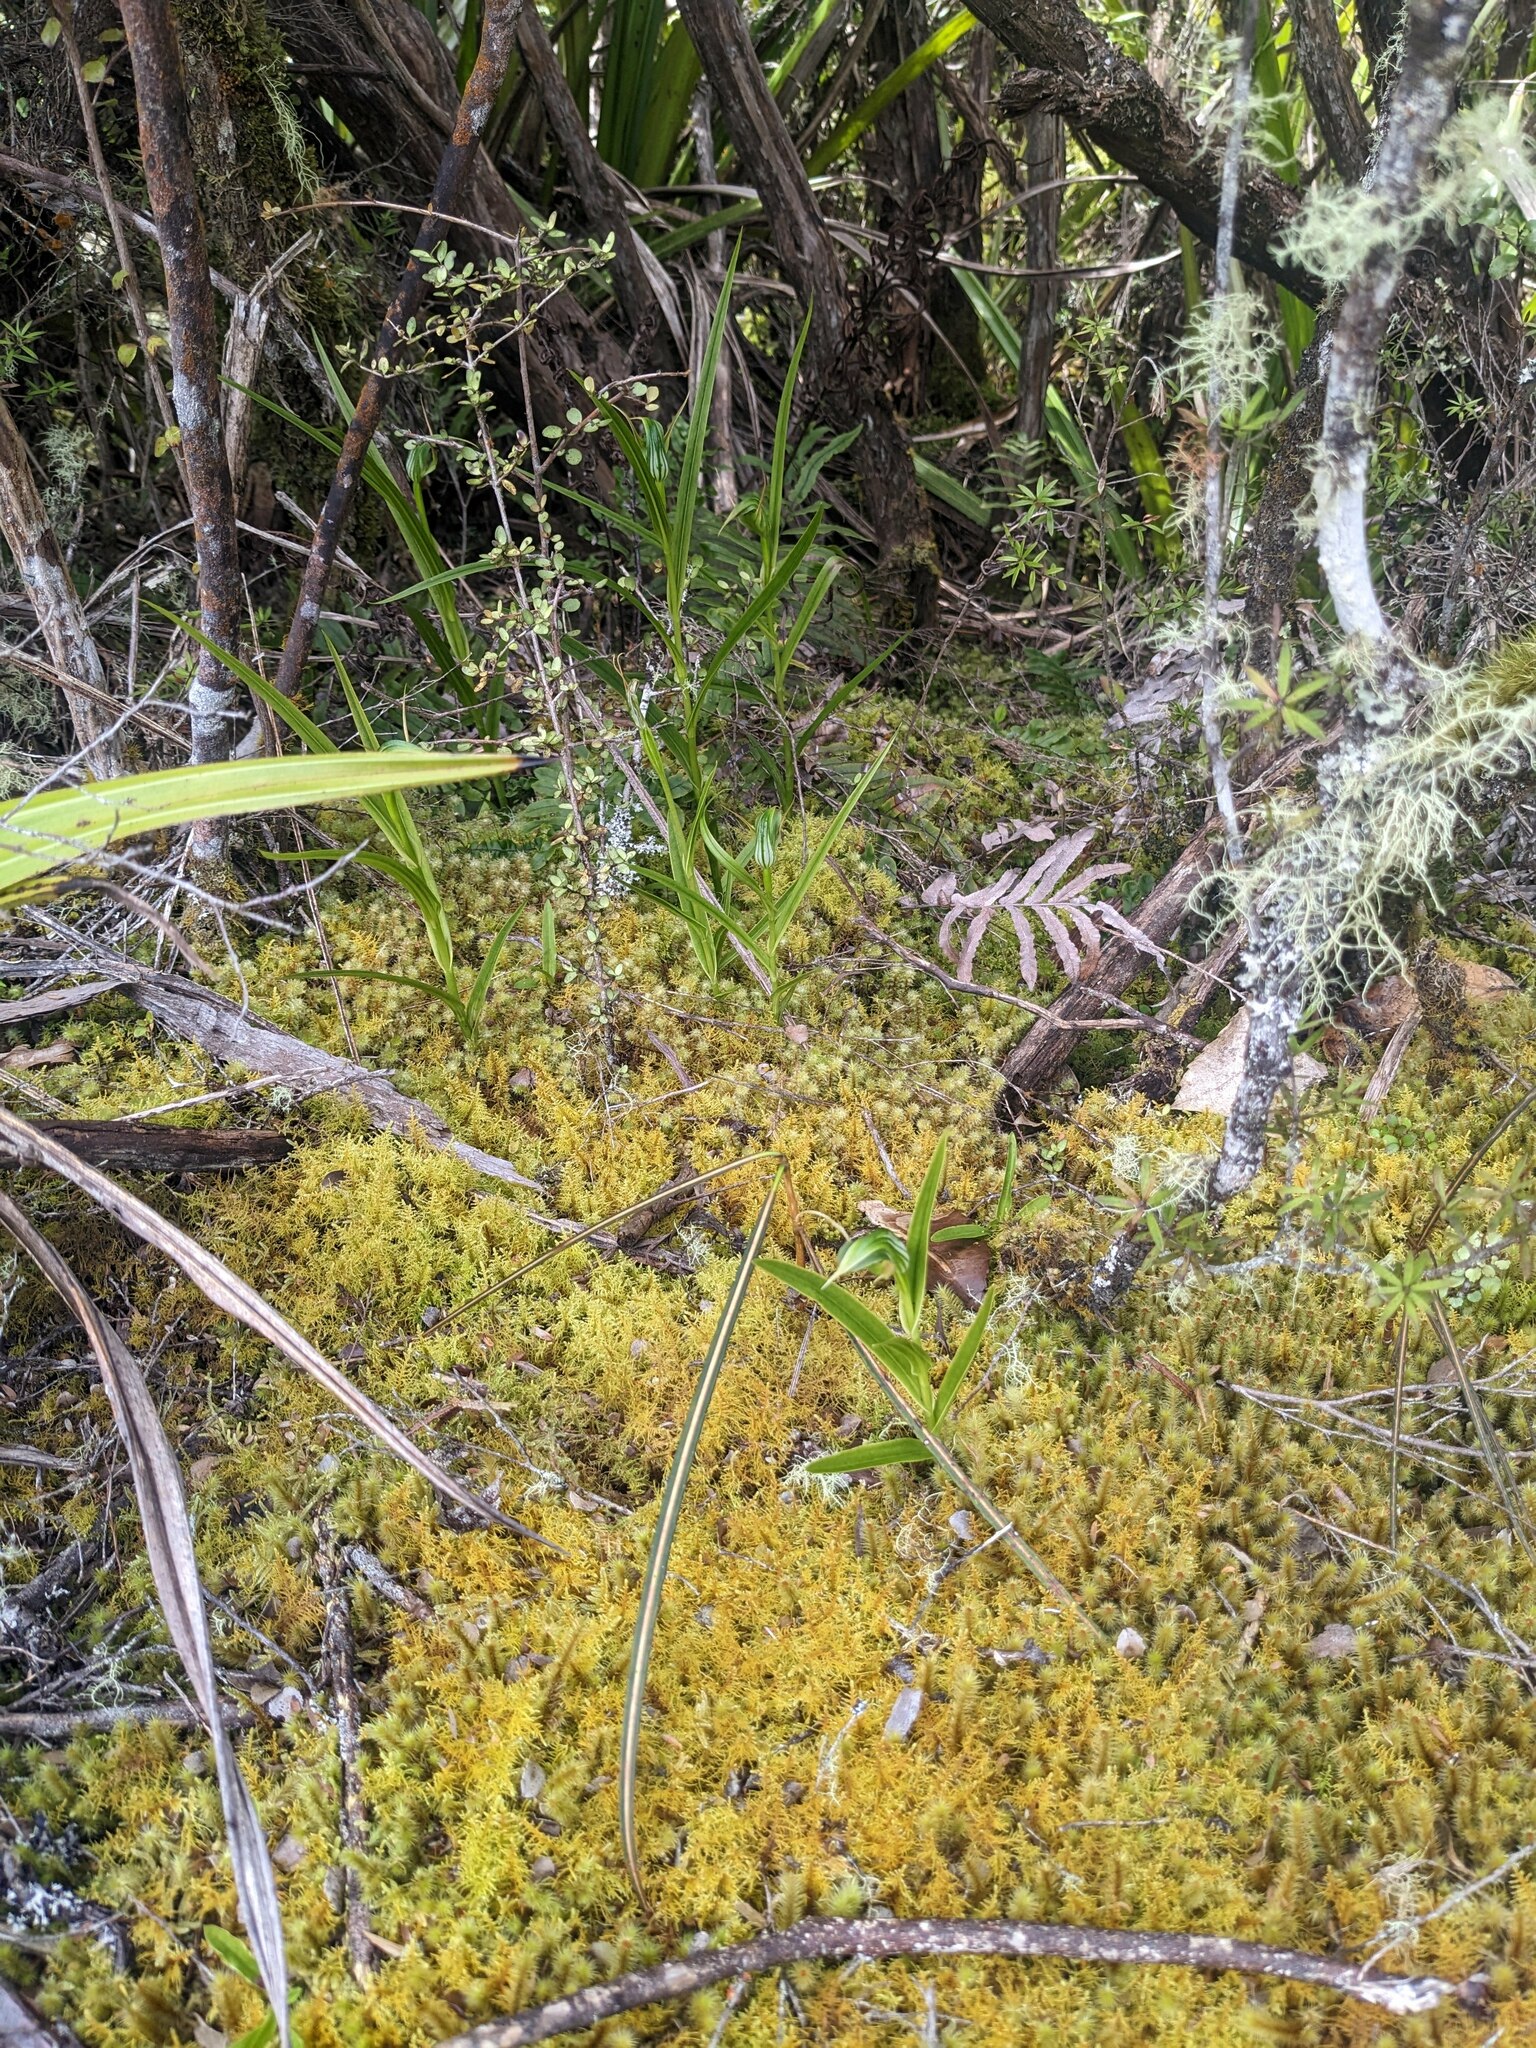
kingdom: Plantae
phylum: Tracheophyta
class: Liliopsida
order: Asparagales
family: Orchidaceae
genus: Pterostylis
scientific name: Pterostylis montana
